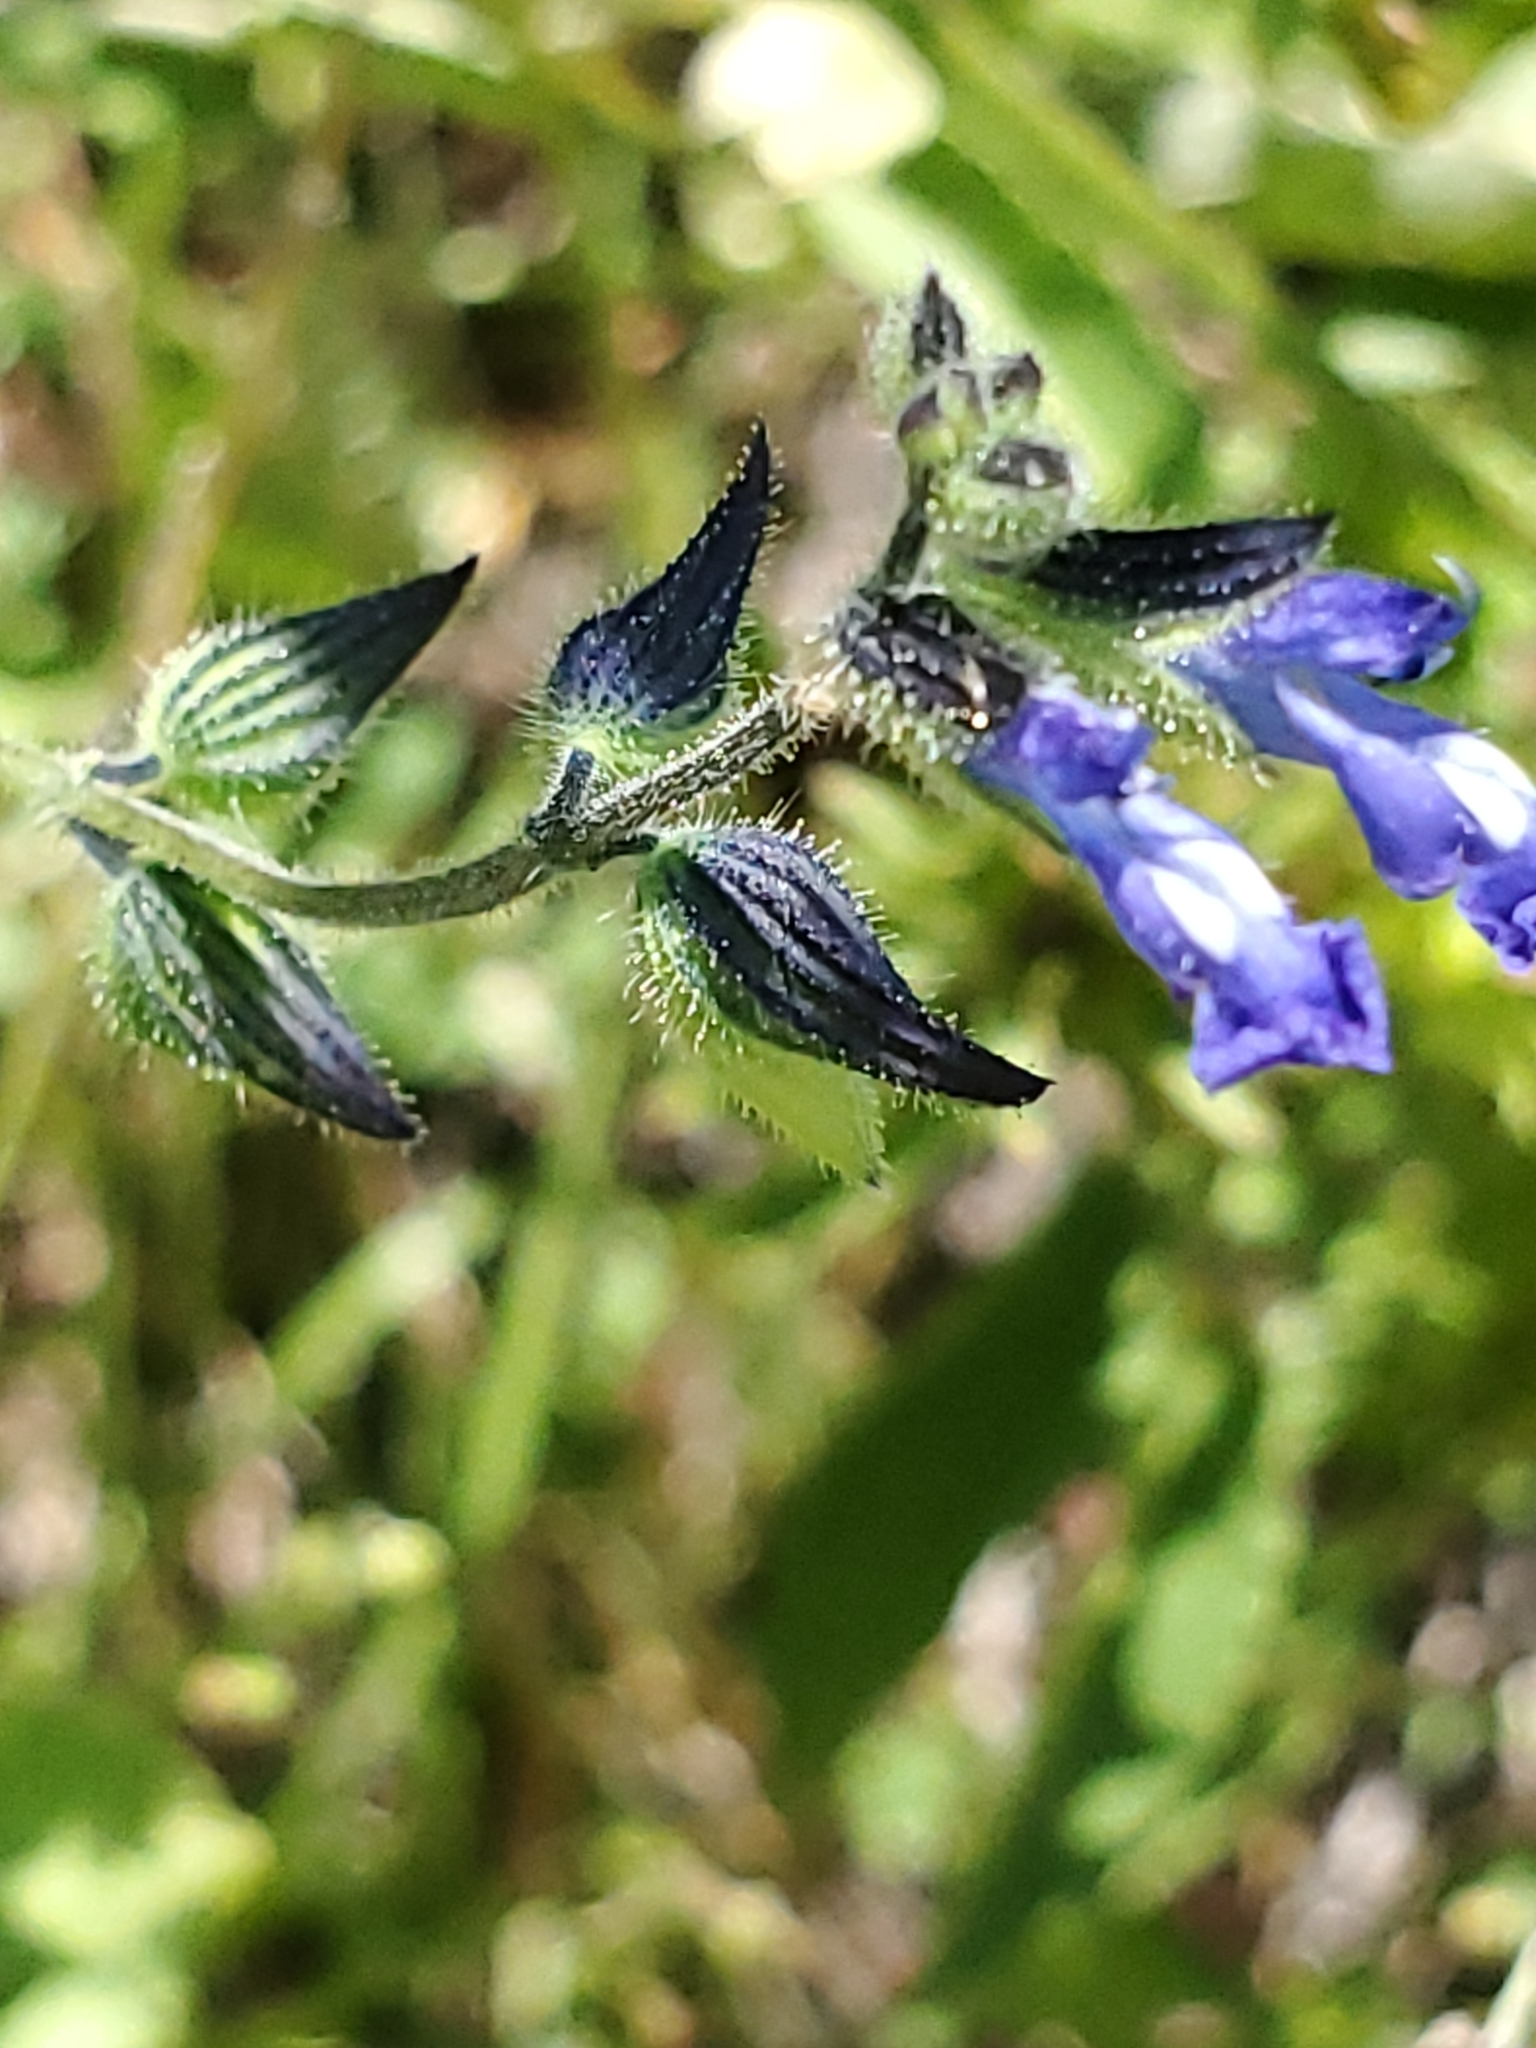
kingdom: Plantae
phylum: Tracheophyta
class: Magnoliopsida
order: Lamiales
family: Lamiaceae
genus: Salvia
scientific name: Salvia subincisa
